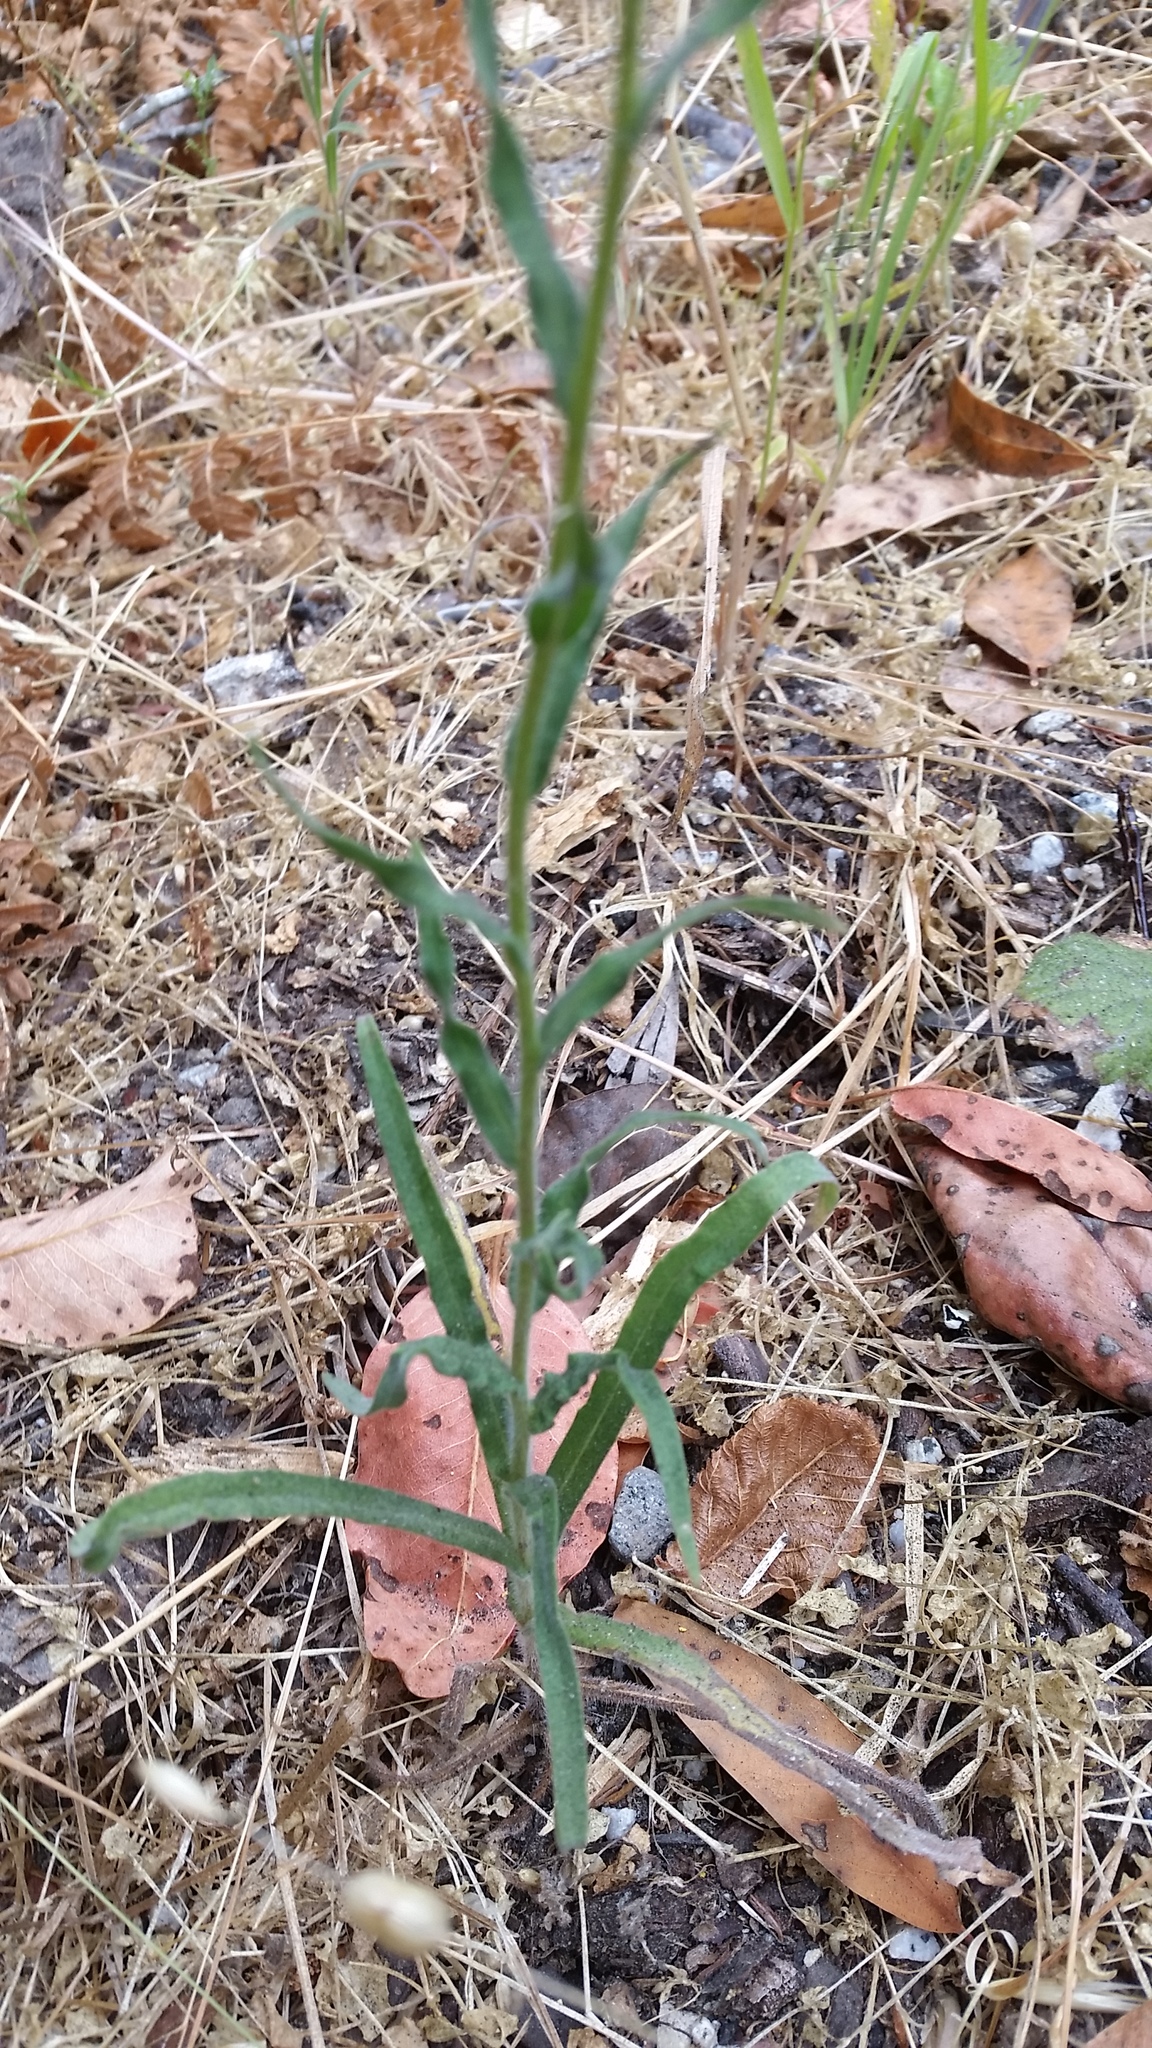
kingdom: Plantae
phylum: Tracheophyta
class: Magnoliopsida
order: Asterales
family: Asteraceae
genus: Madia
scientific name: Madia gracilis
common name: Grassy tarweed
